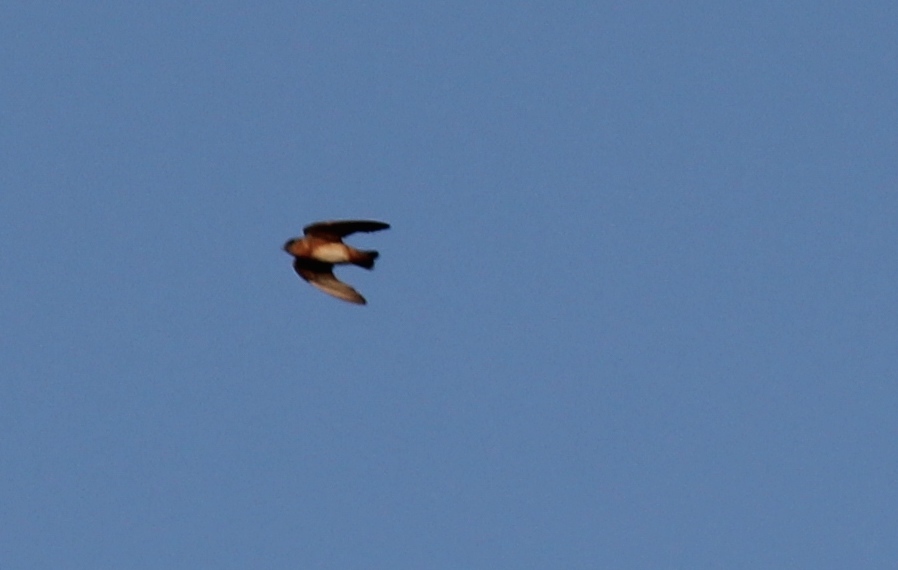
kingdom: Animalia
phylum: Chordata
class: Aves
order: Passeriformes
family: Hirundinidae
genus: Petrochelidon
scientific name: Petrochelidon fulva
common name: Cave swallow
